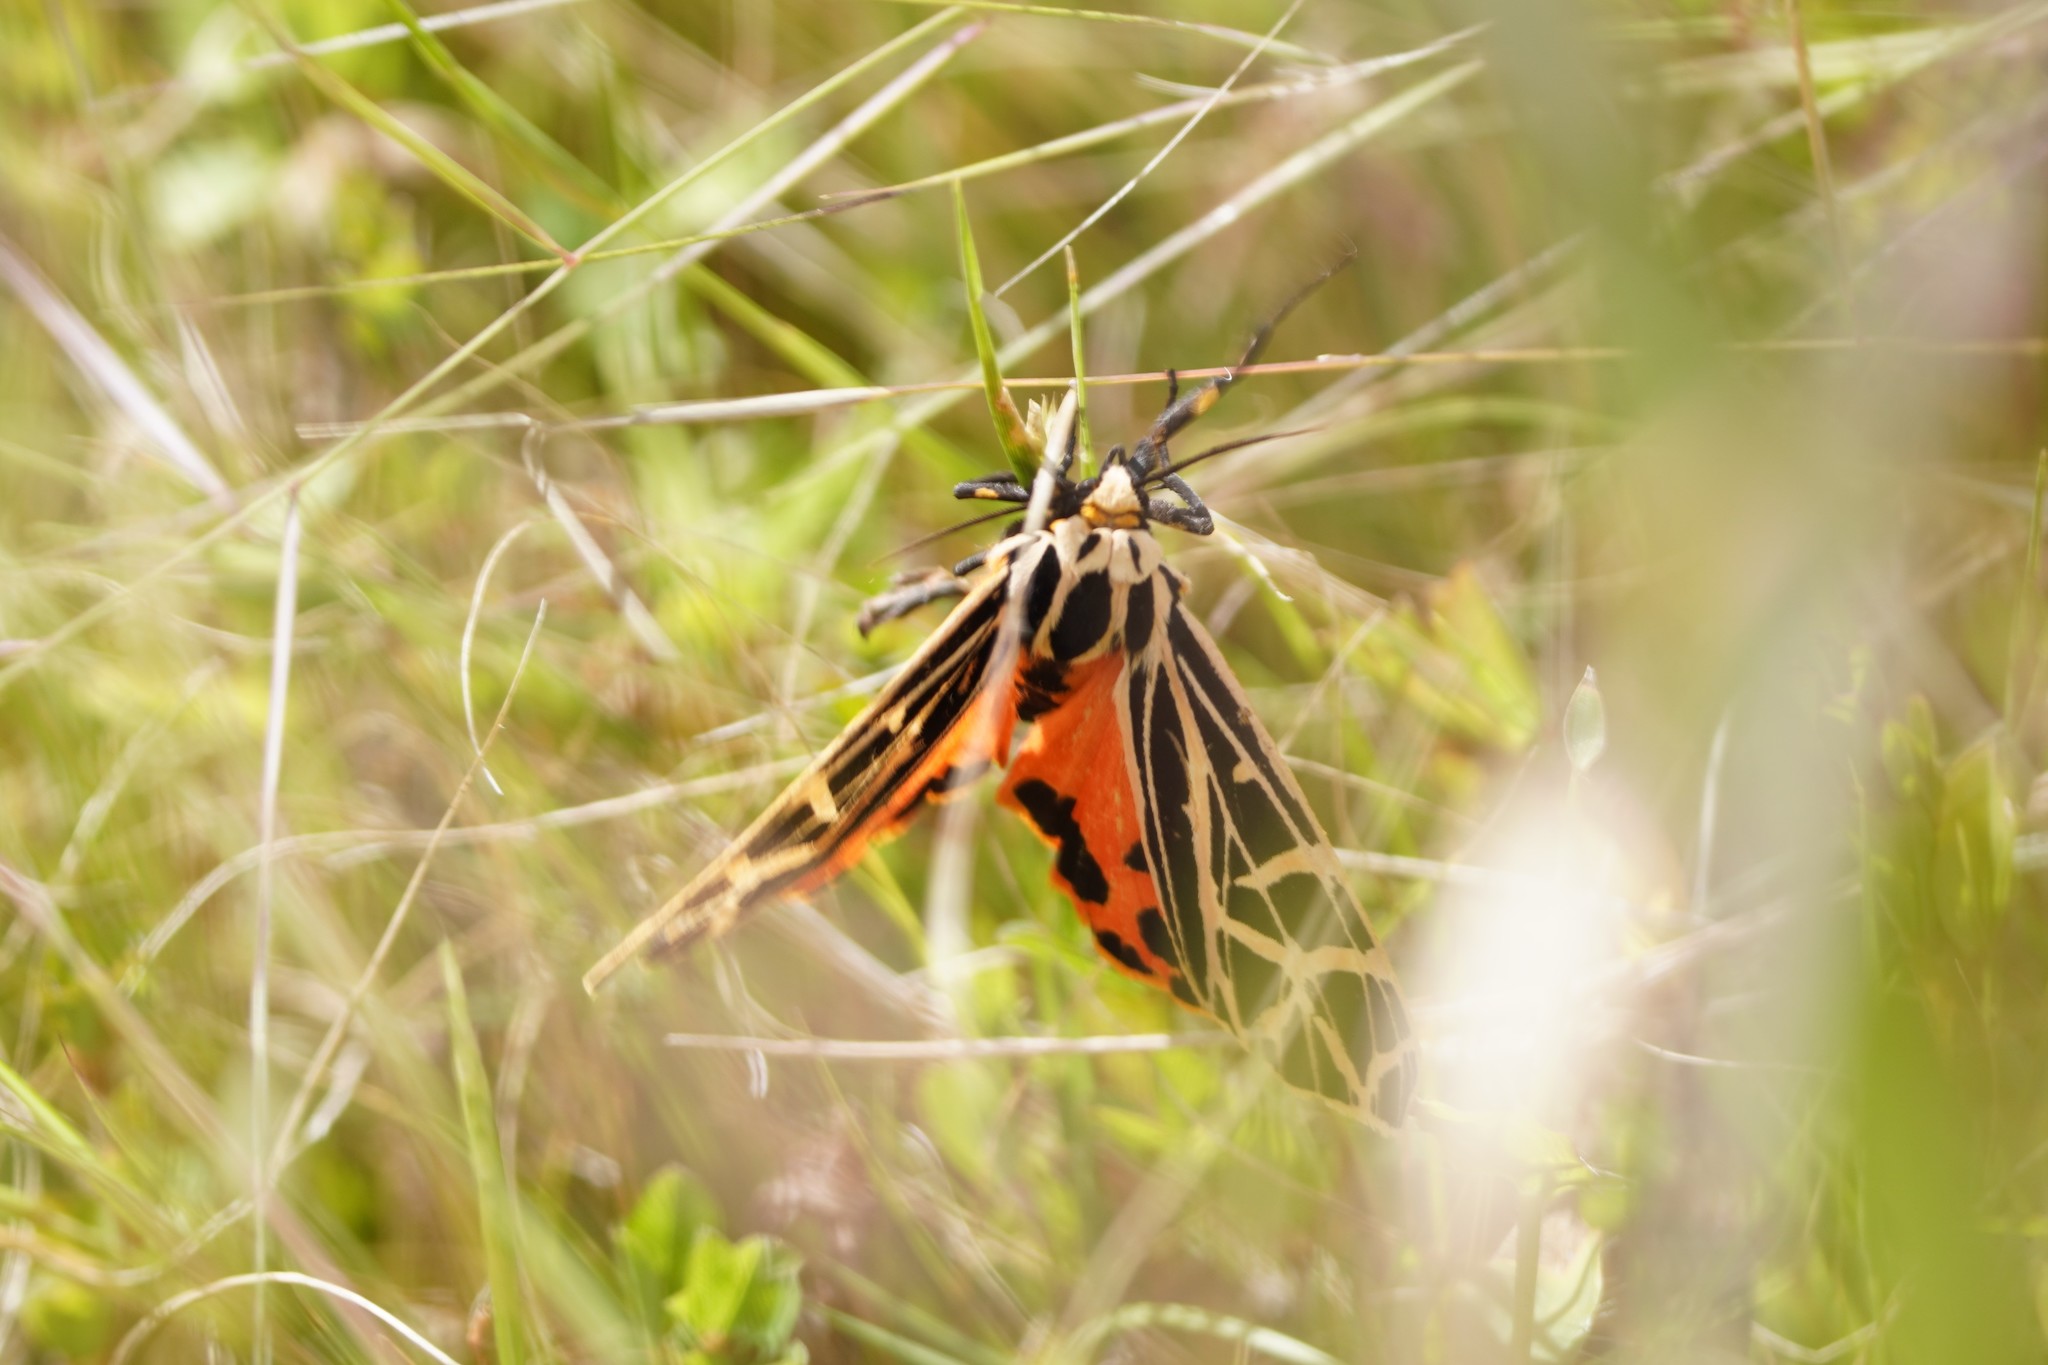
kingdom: Animalia
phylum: Arthropoda
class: Insecta
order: Lepidoptera
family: Erebidae
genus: Grammia
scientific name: Grammia parthenice
